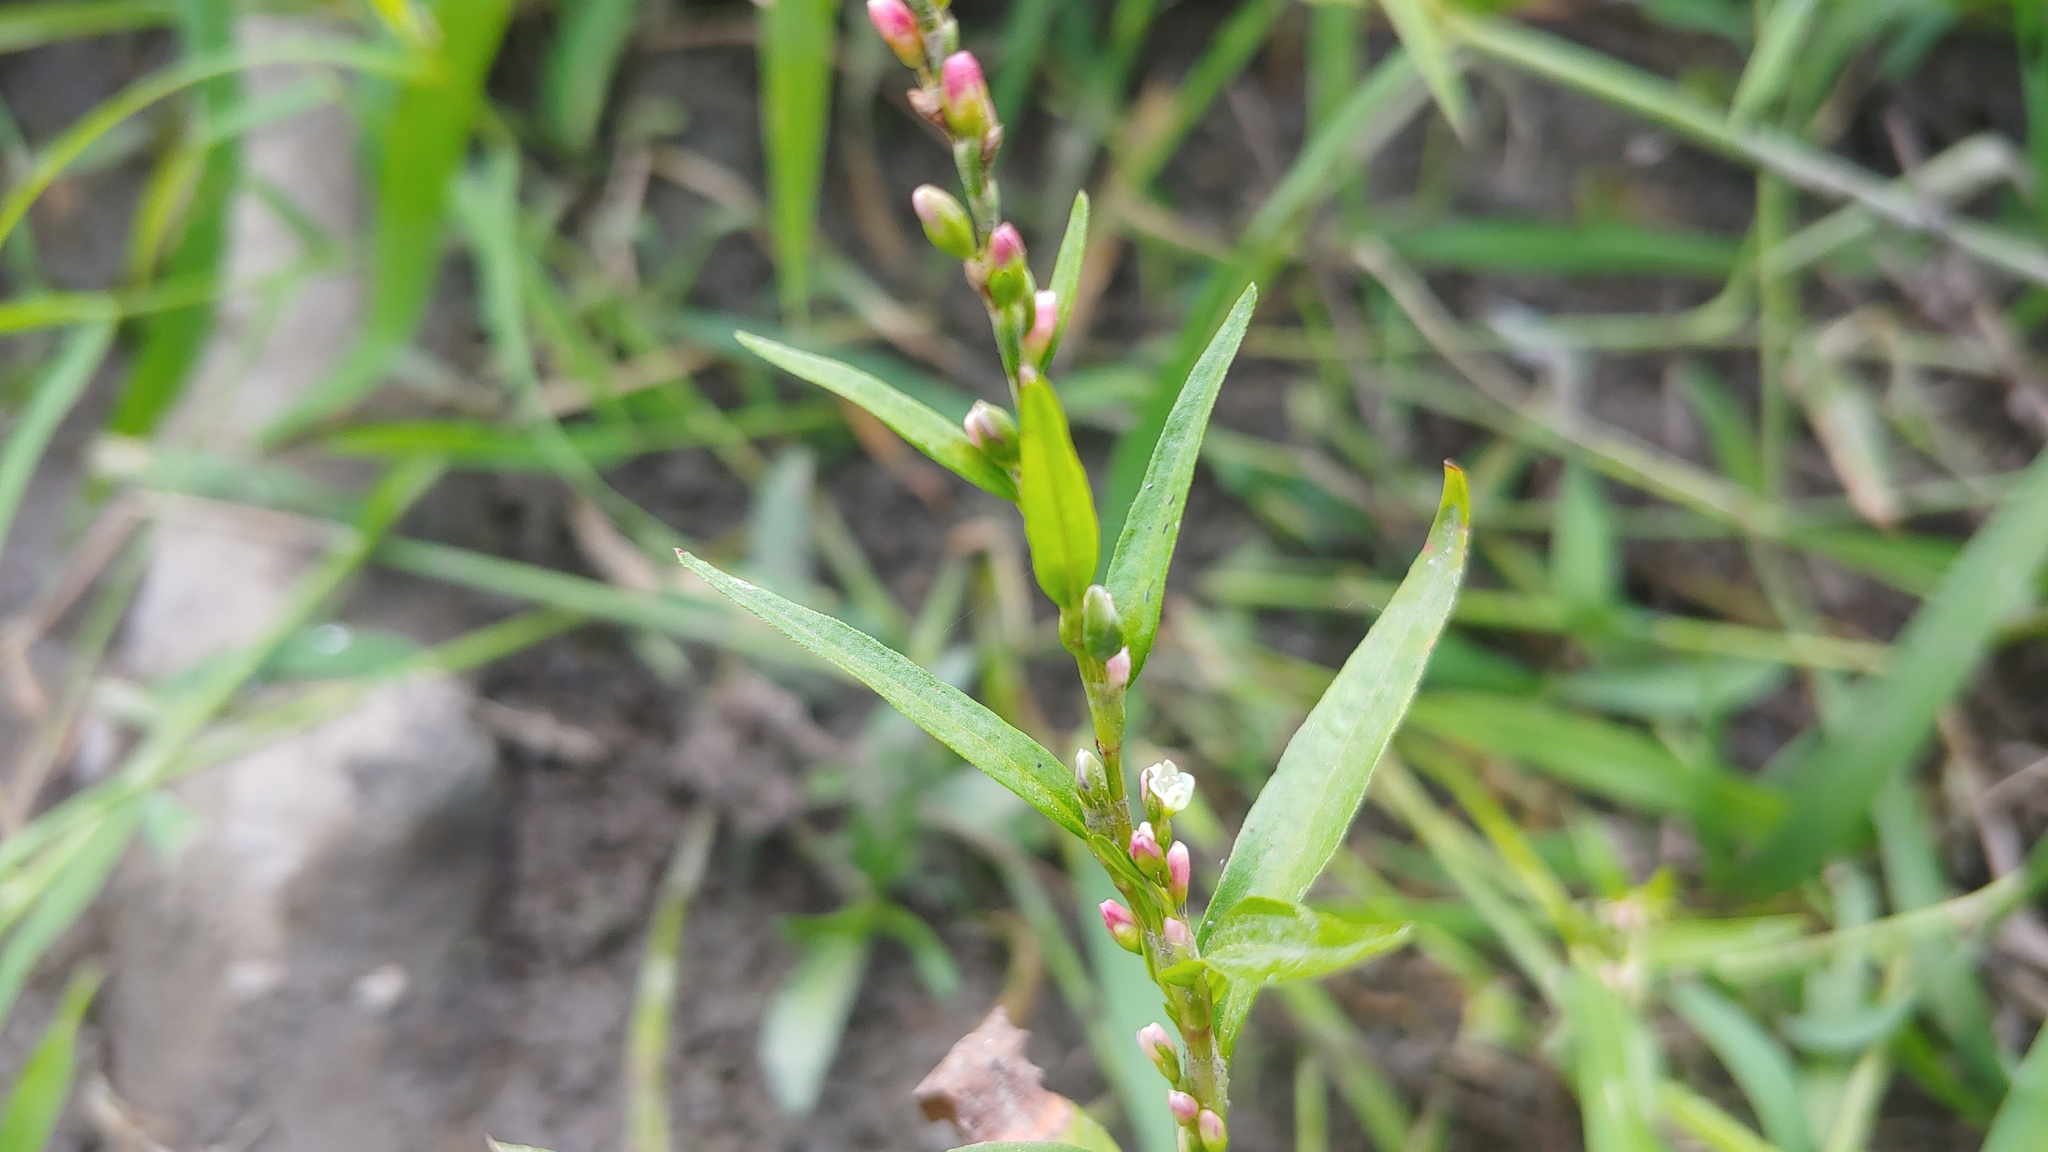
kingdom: Plantae
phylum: Tracheophyta
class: Magnoliopsida
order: Caryophyllales
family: Polygonaceae
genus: Persicaria
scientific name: Persicaria hydropiper
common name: Water-pepper
